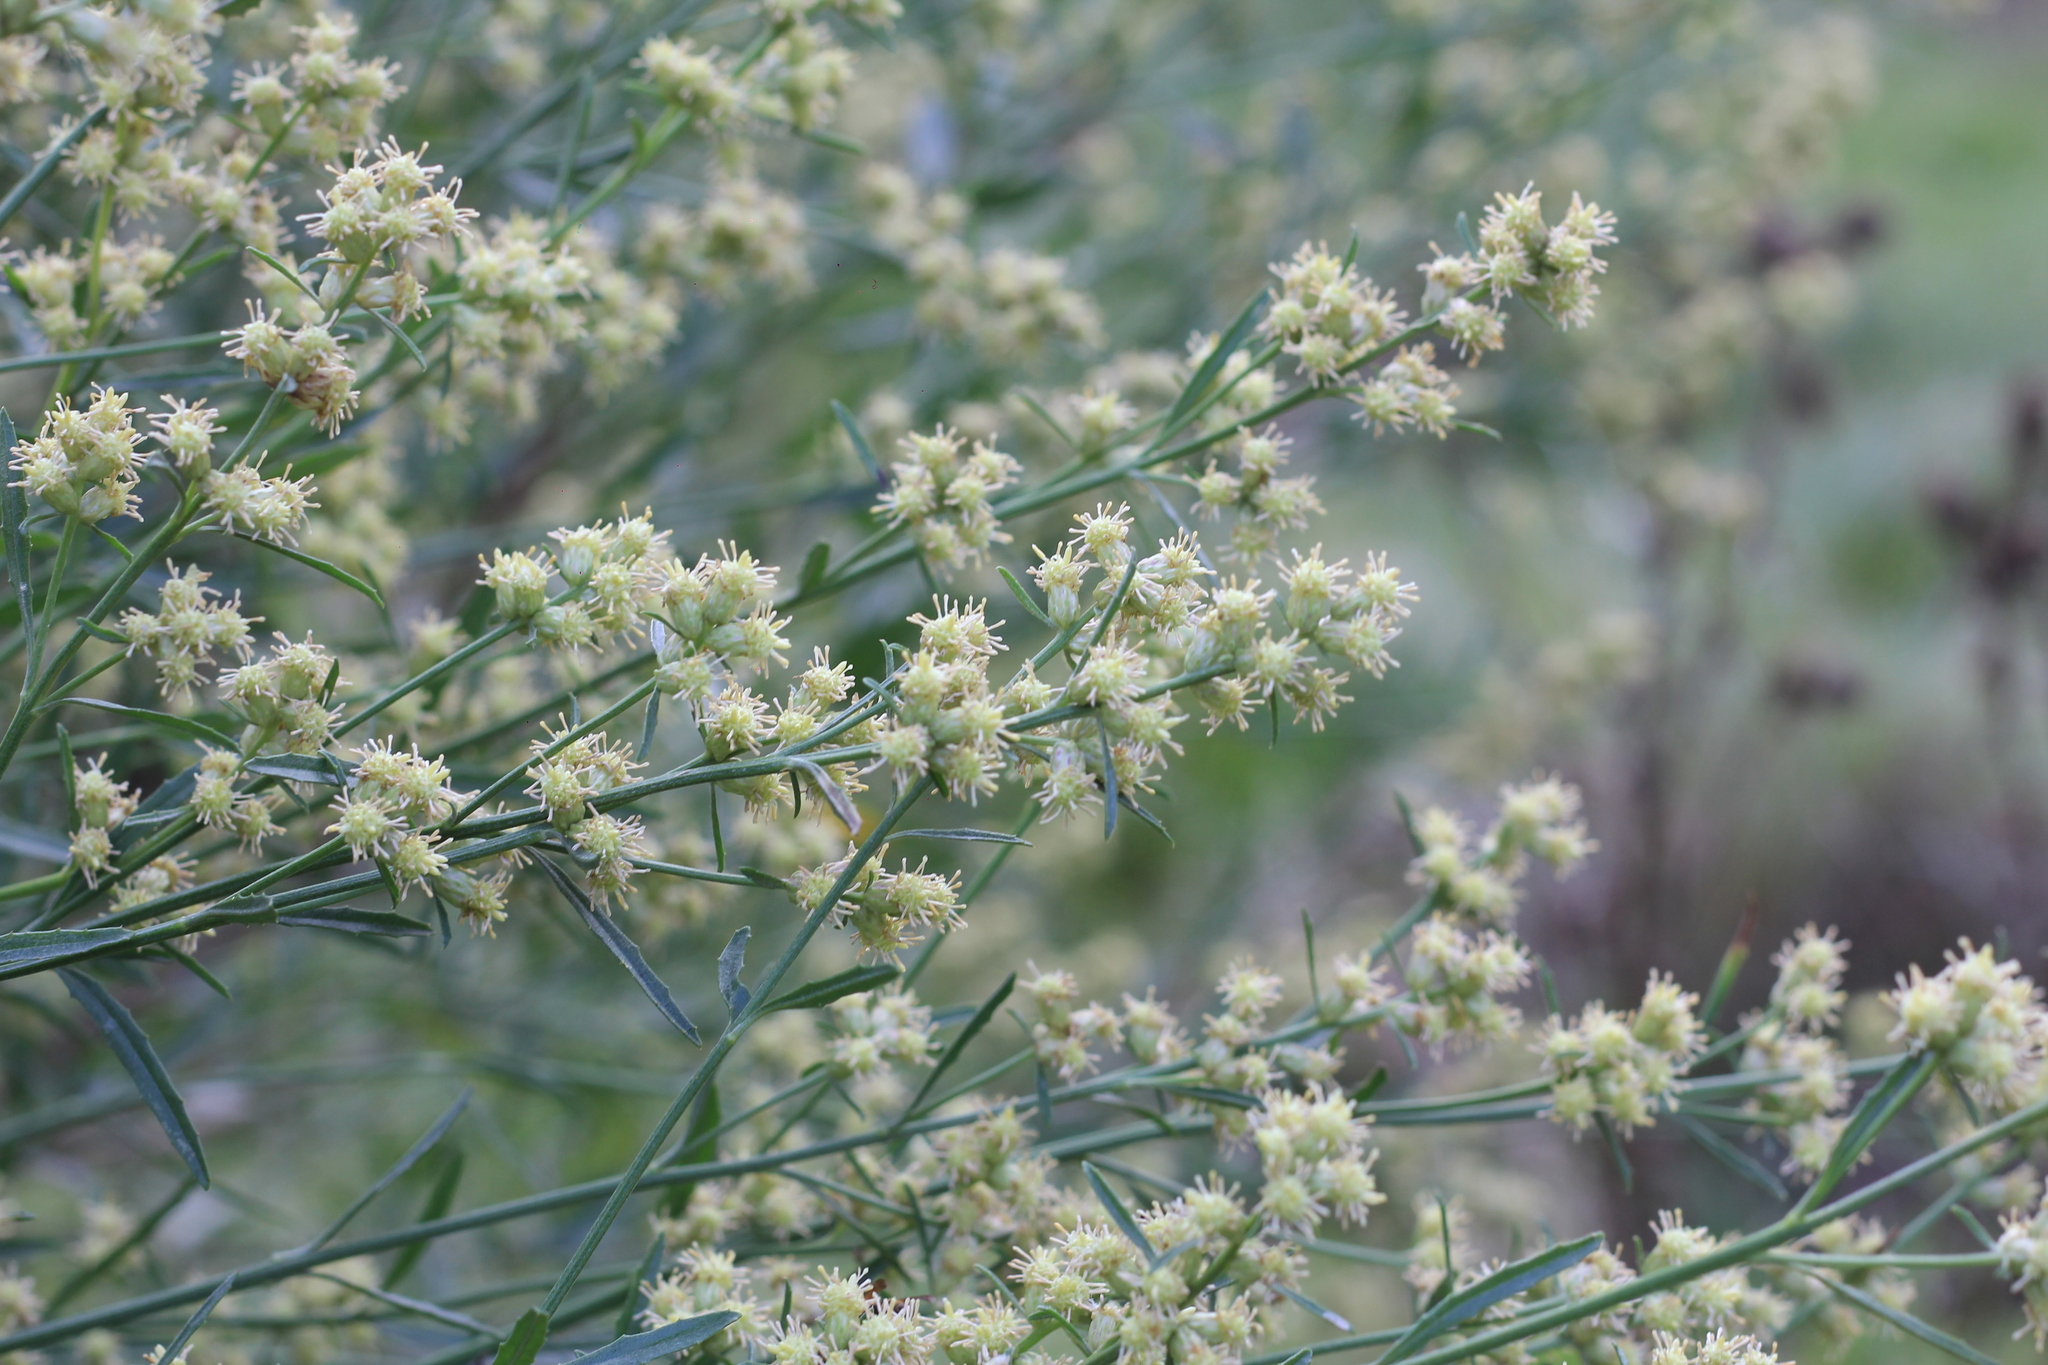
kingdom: Plantae
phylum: Tracheophyta
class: Magnoliopsida
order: Asterales
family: Asteraceae
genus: Baccharis
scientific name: Baccharis spicata
